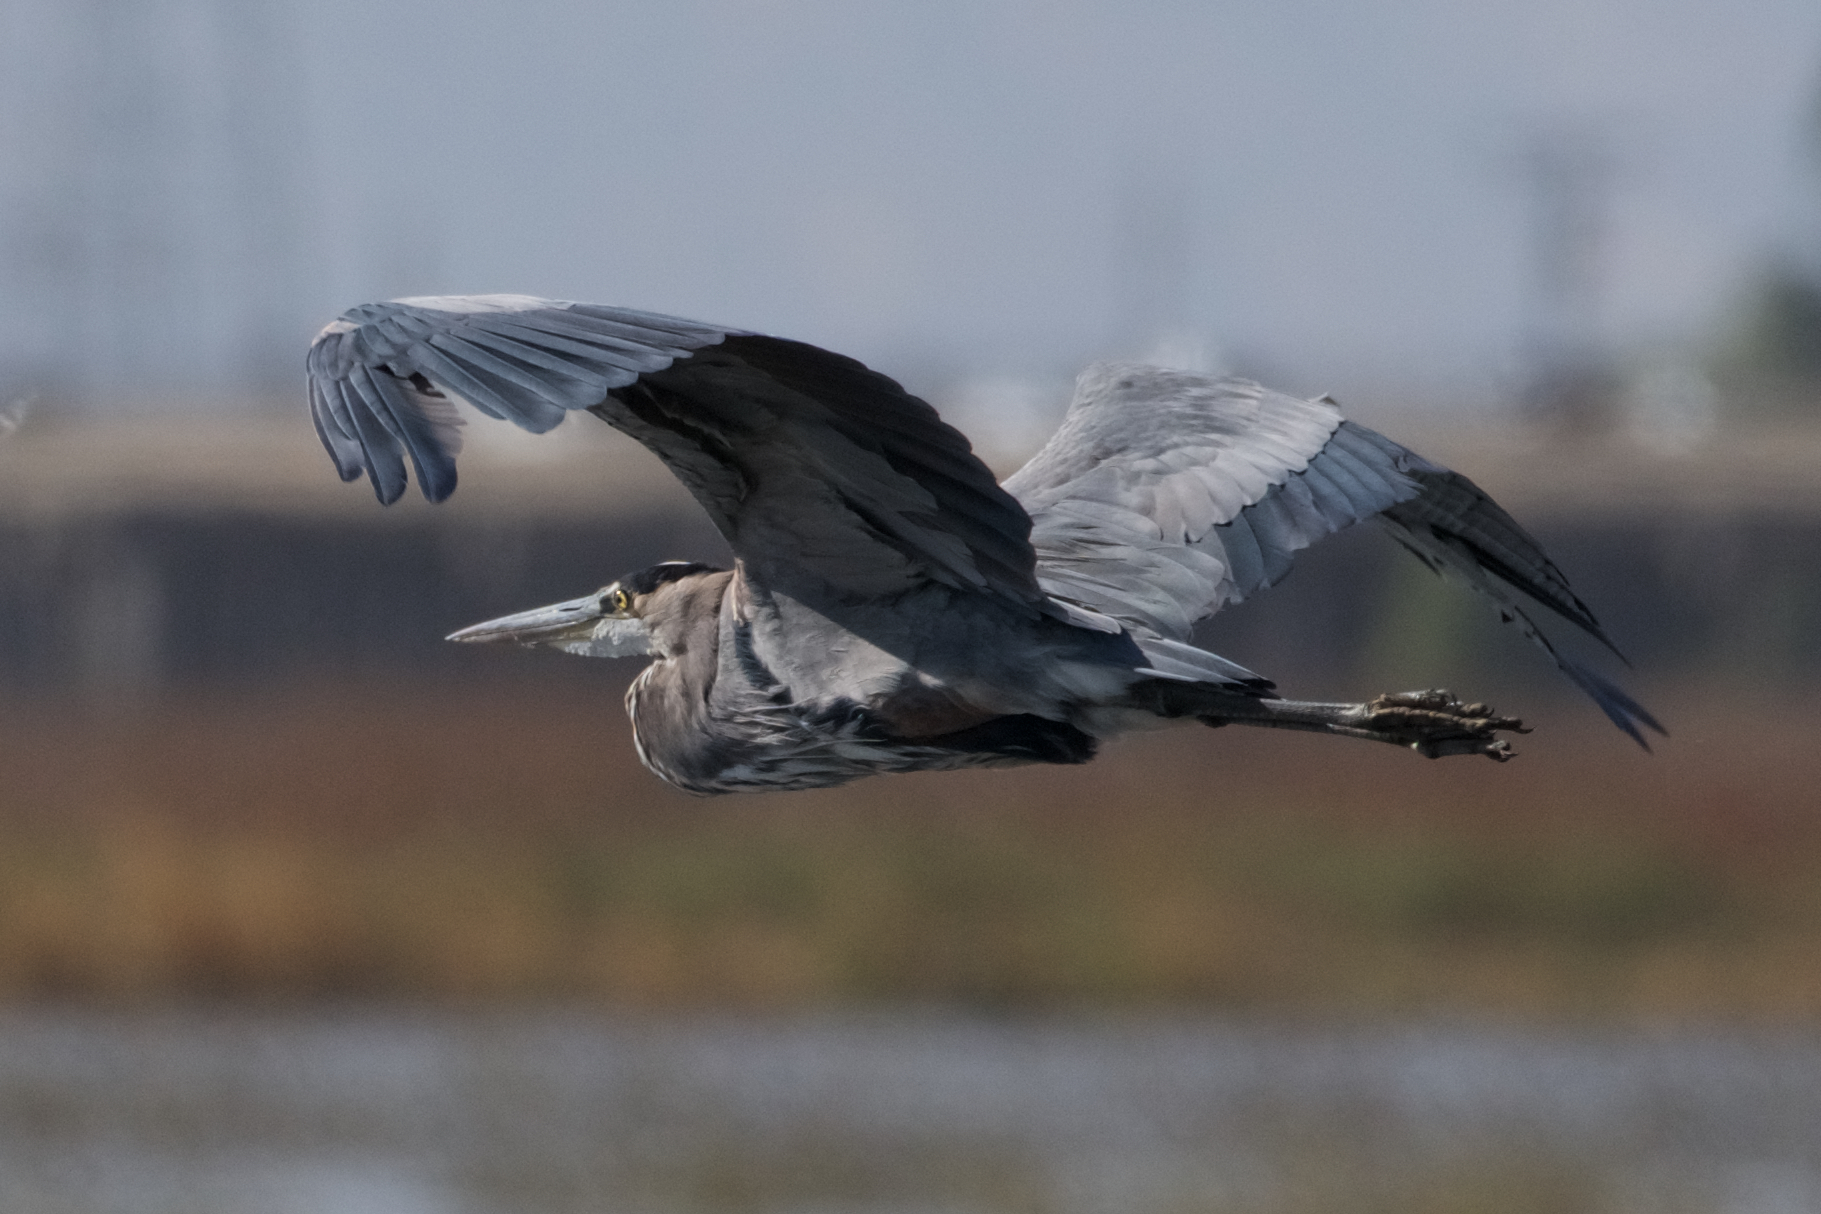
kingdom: Animalia
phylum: Chordata
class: Aves
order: Pelecaniformes
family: Ardeidae
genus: Ardea
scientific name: Ardea herodias
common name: Great blue heron
